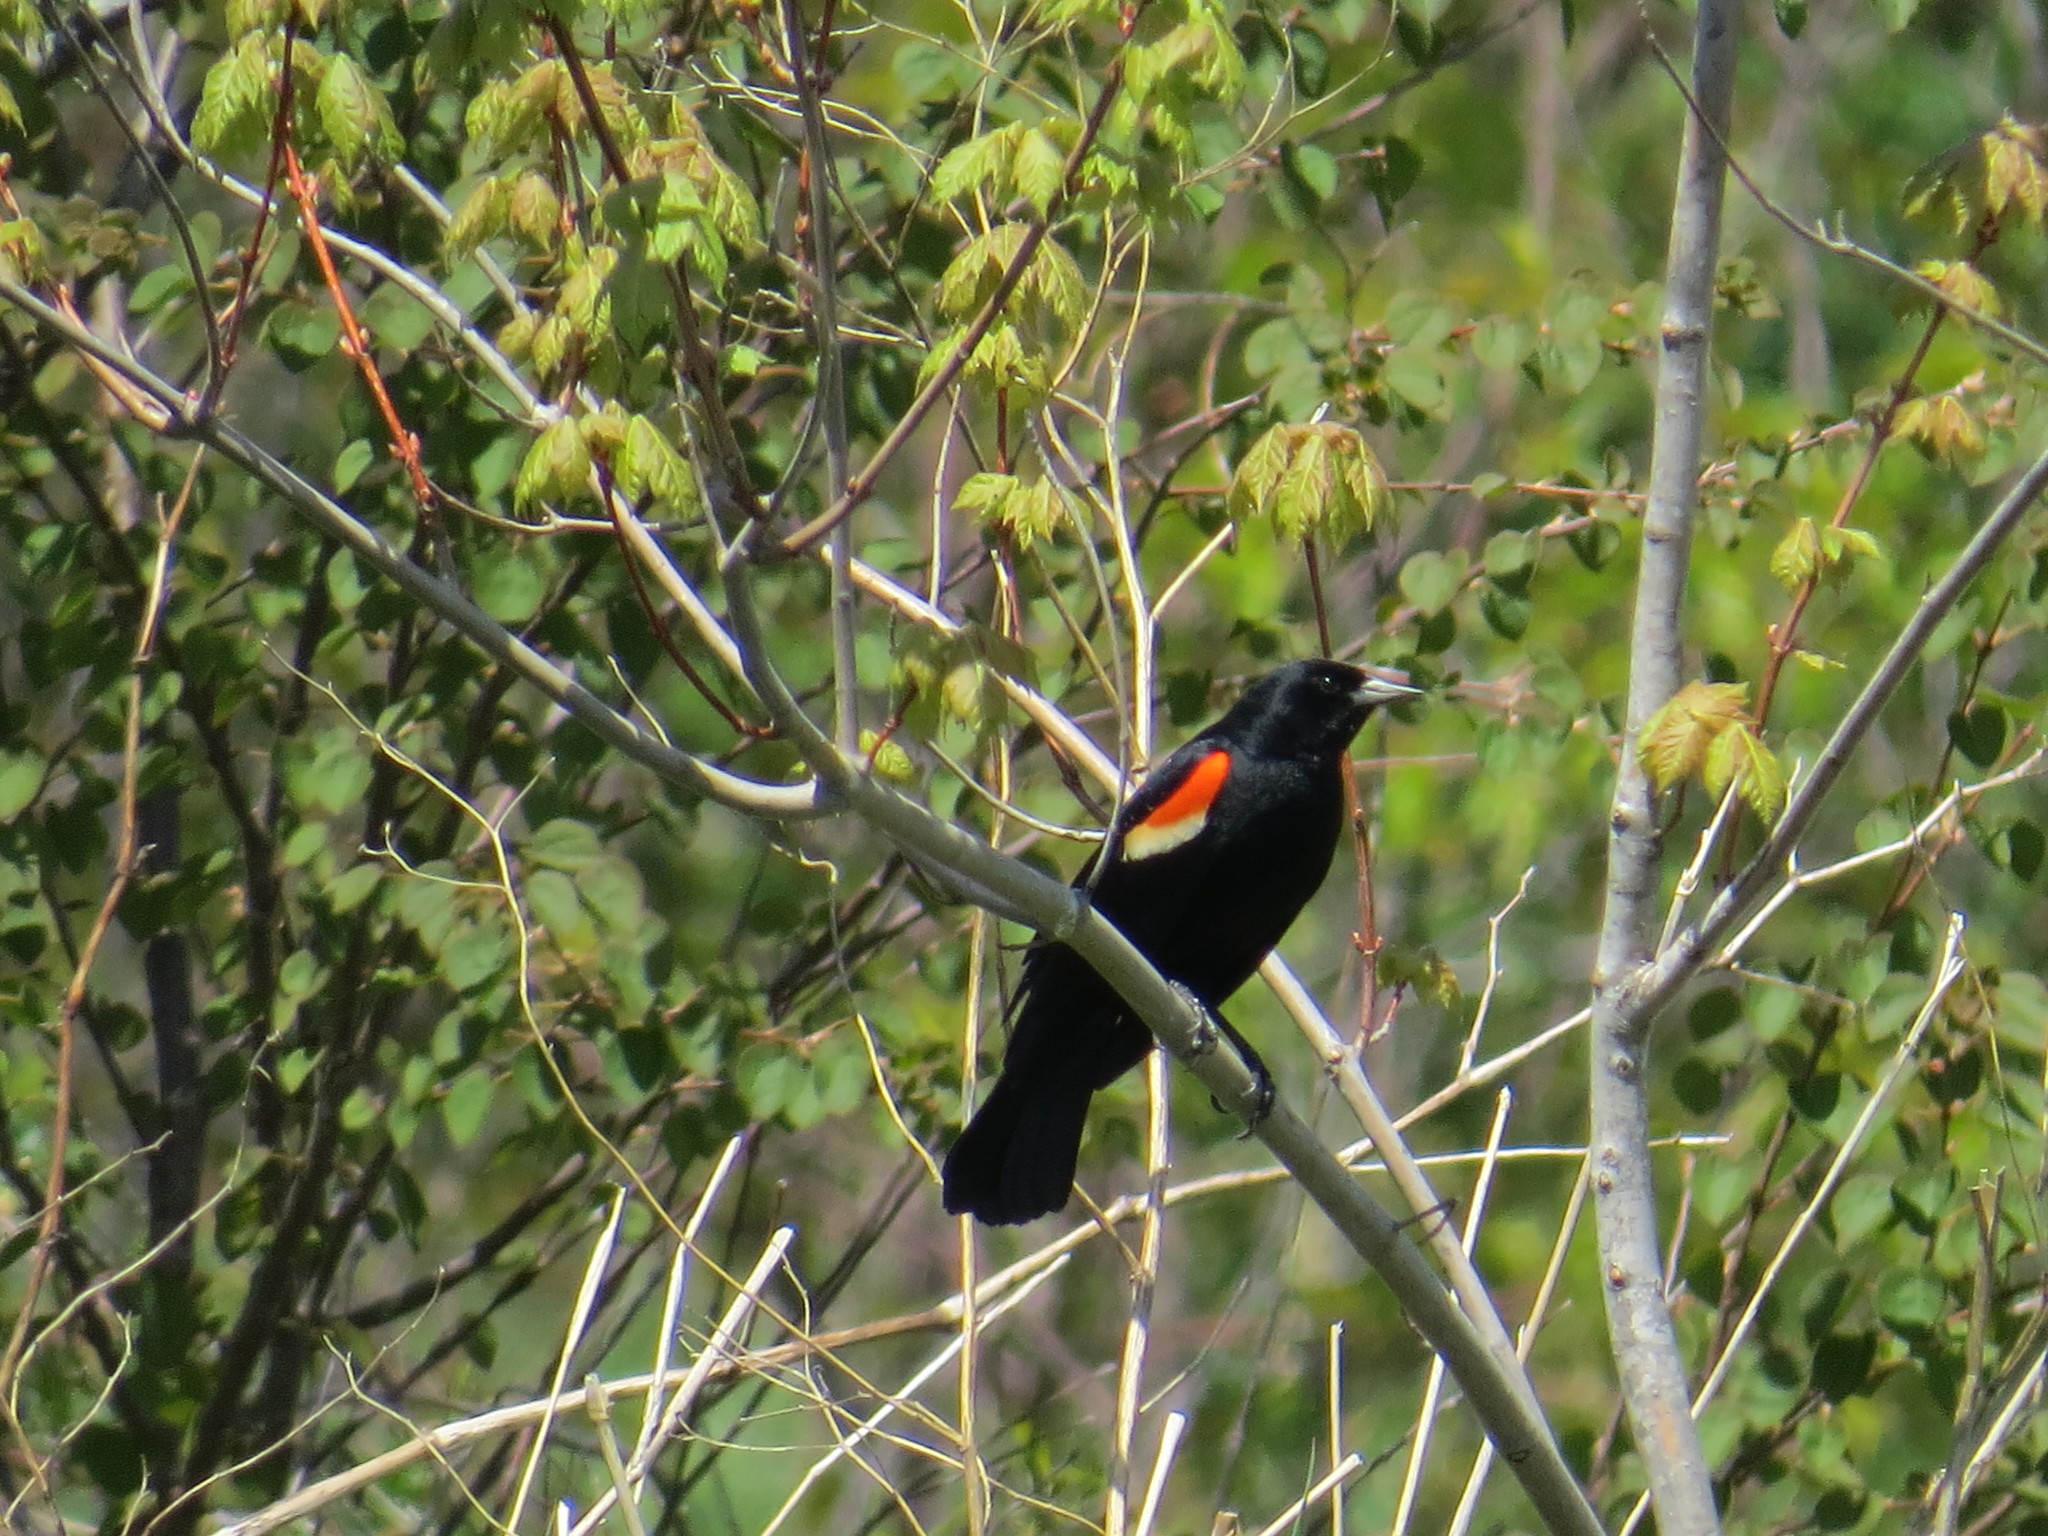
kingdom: Animalia
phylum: Chordata
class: Aves
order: Passeriformes
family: Icteridae
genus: Agelaius
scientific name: Agelaius phoeniceus
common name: Red-winged blackbird
